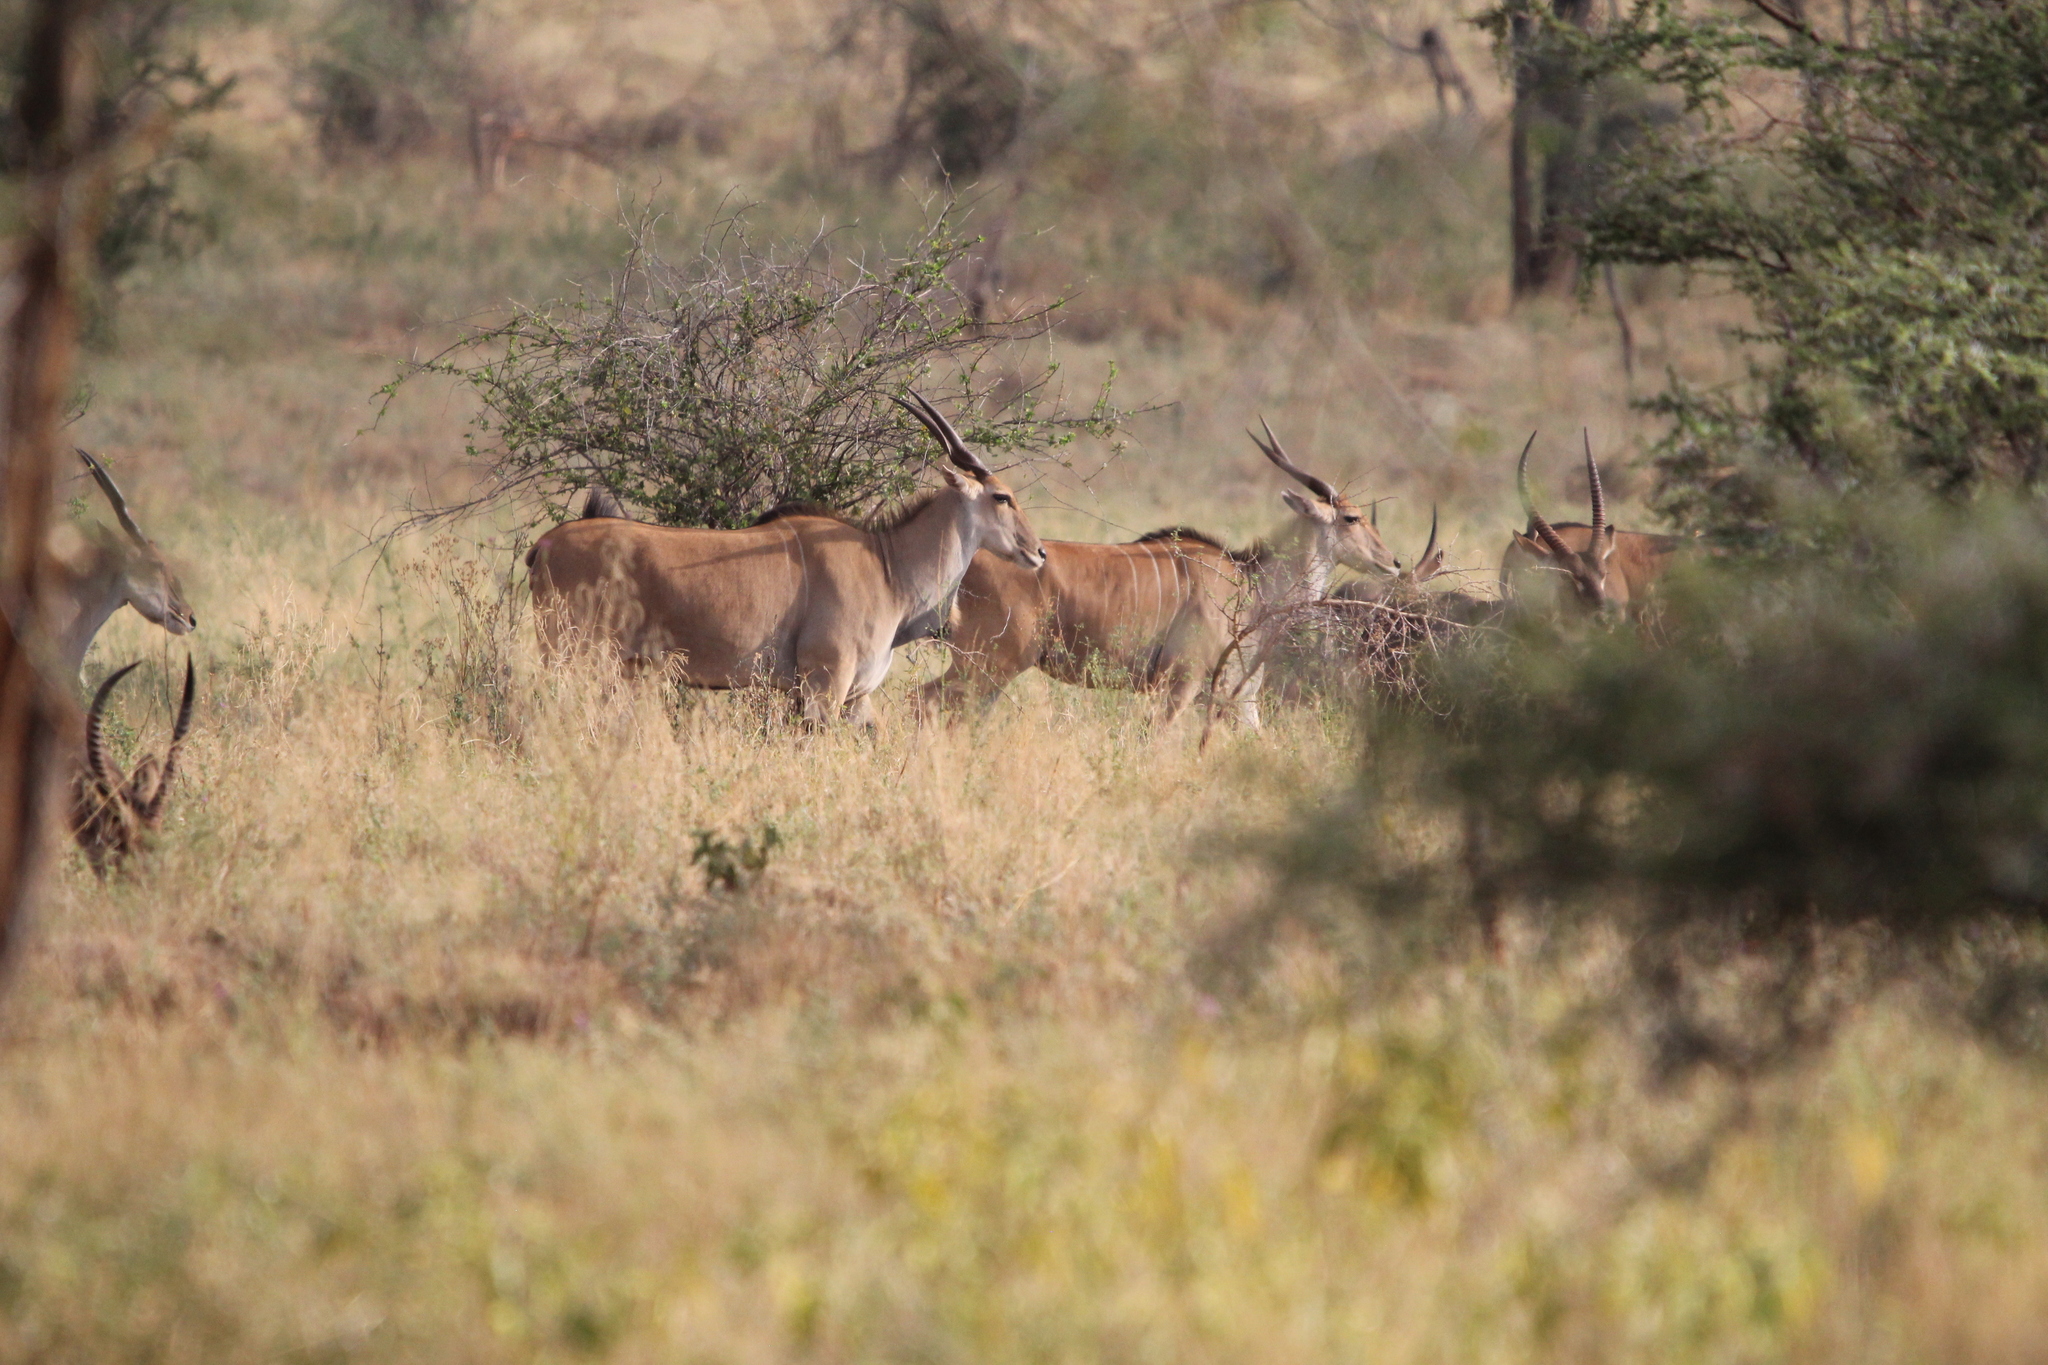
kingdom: Animalia
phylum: Chordata
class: Mammalia
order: Artiodactyla
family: Bovidae
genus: Taurotragus
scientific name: Taurotragus oryx
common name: Common eland
